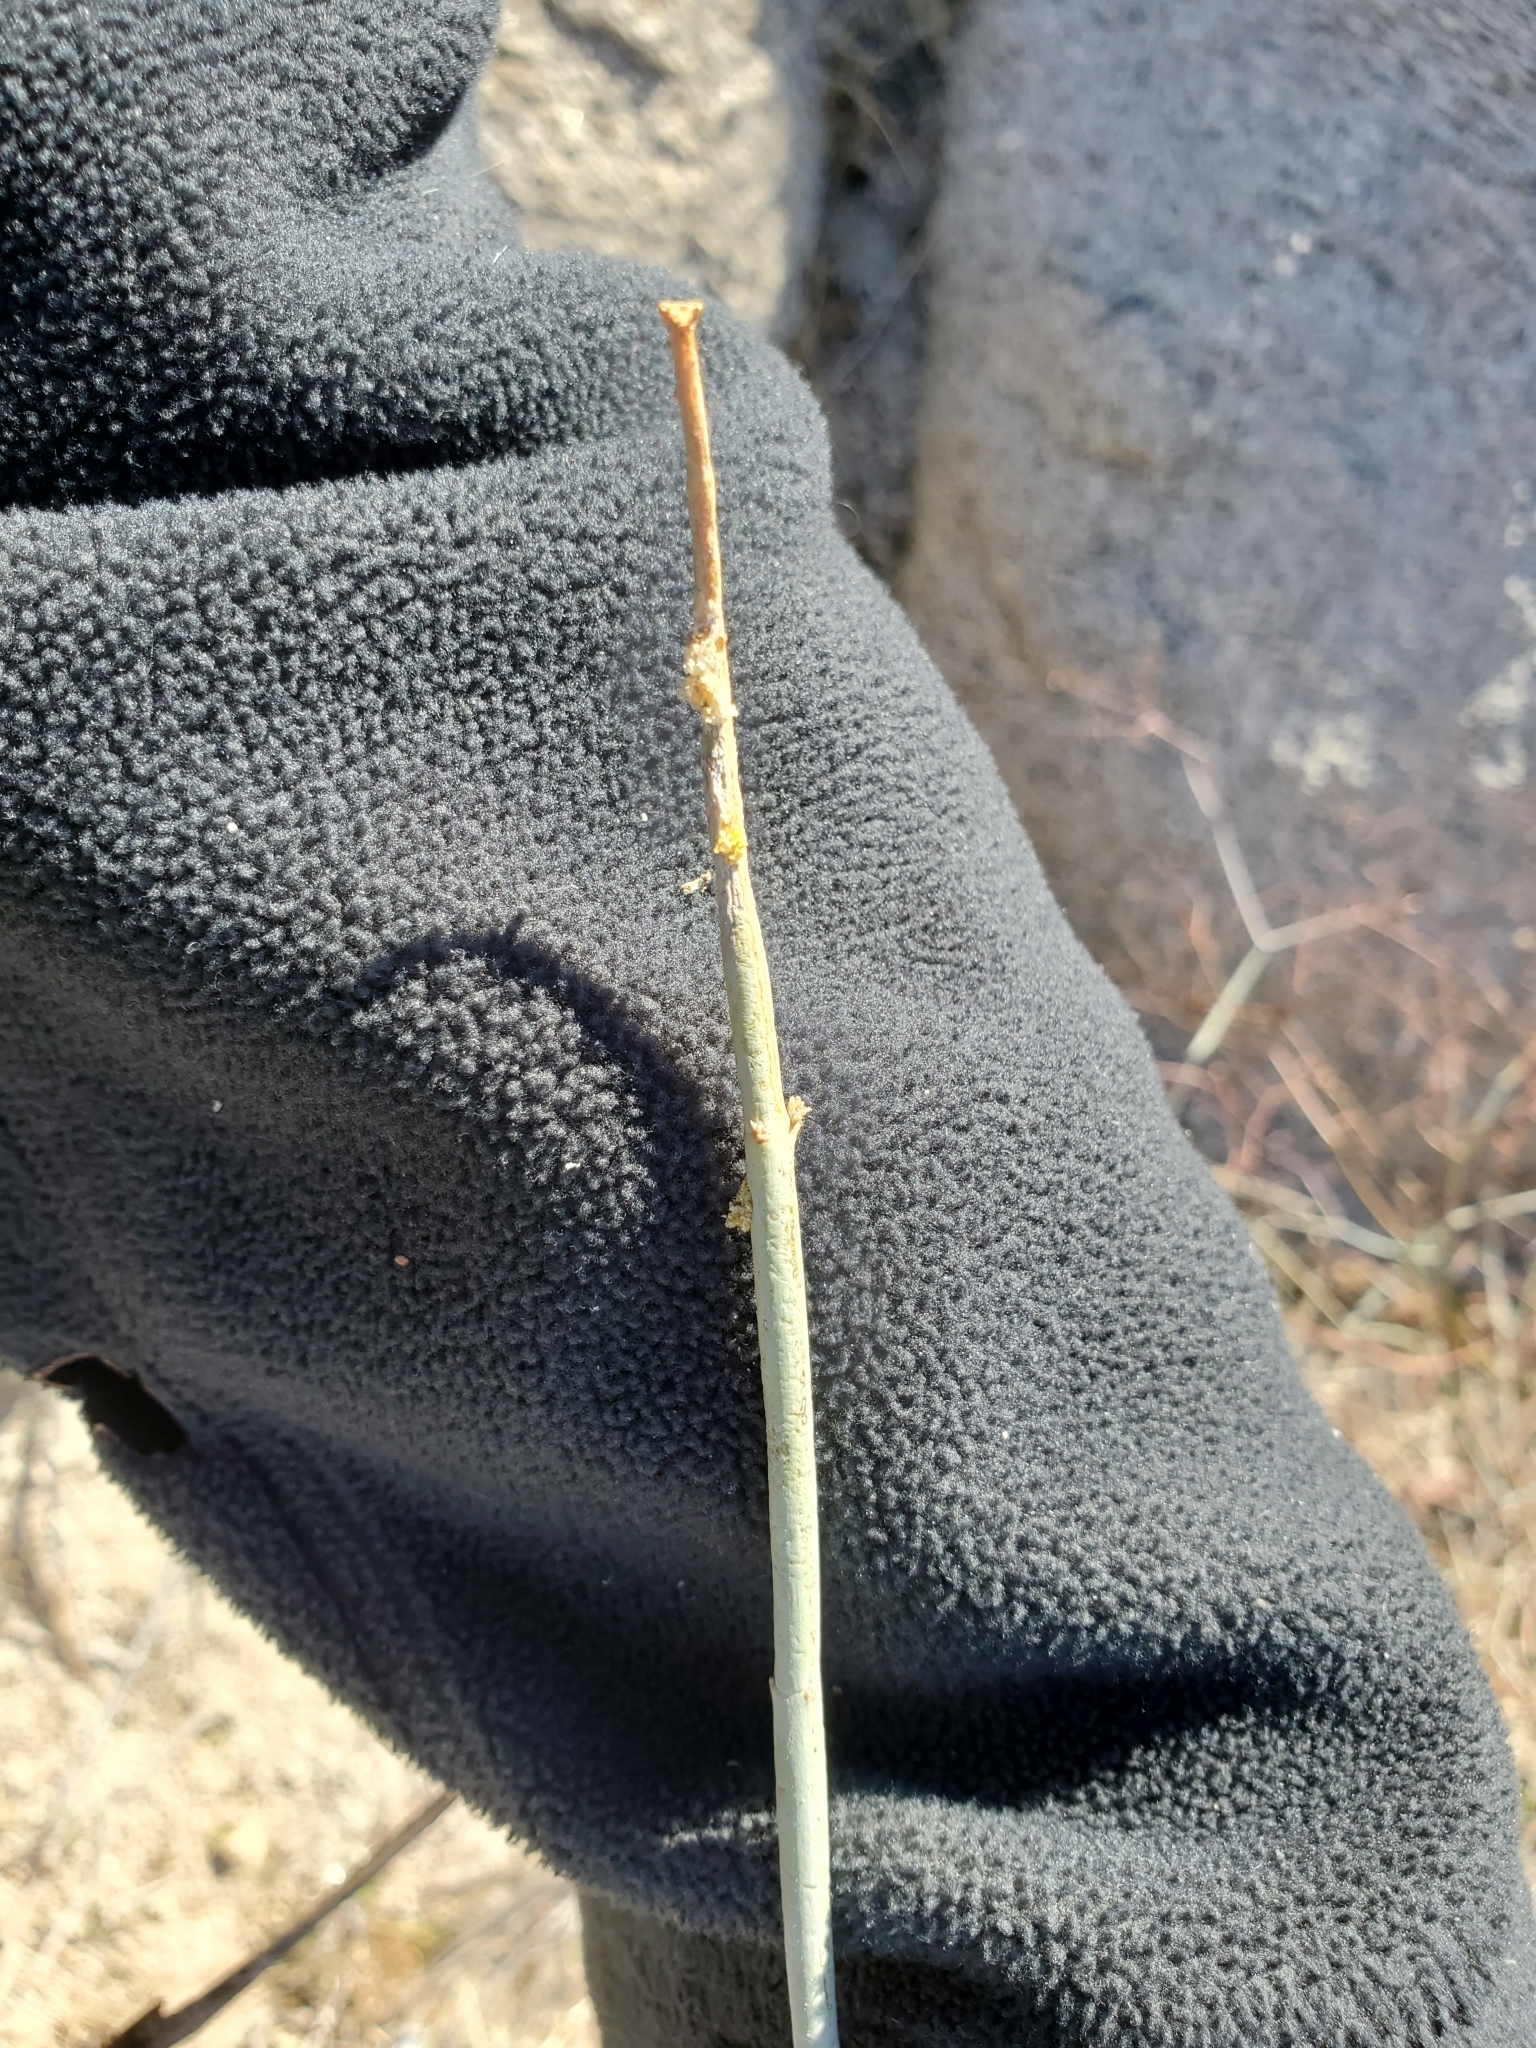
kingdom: Plantae
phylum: Tracheophyta
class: Magnoliopsida
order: Gentianales
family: Apocynaceae
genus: Asclepias
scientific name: Asclepias albicans
